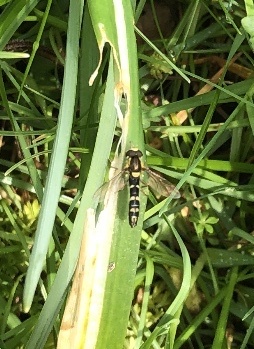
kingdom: Animalia
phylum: Arthropoda
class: Insecta
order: Diptera
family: Syrphidae
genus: Sphaerophoria
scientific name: Sphaerophoria scripta
